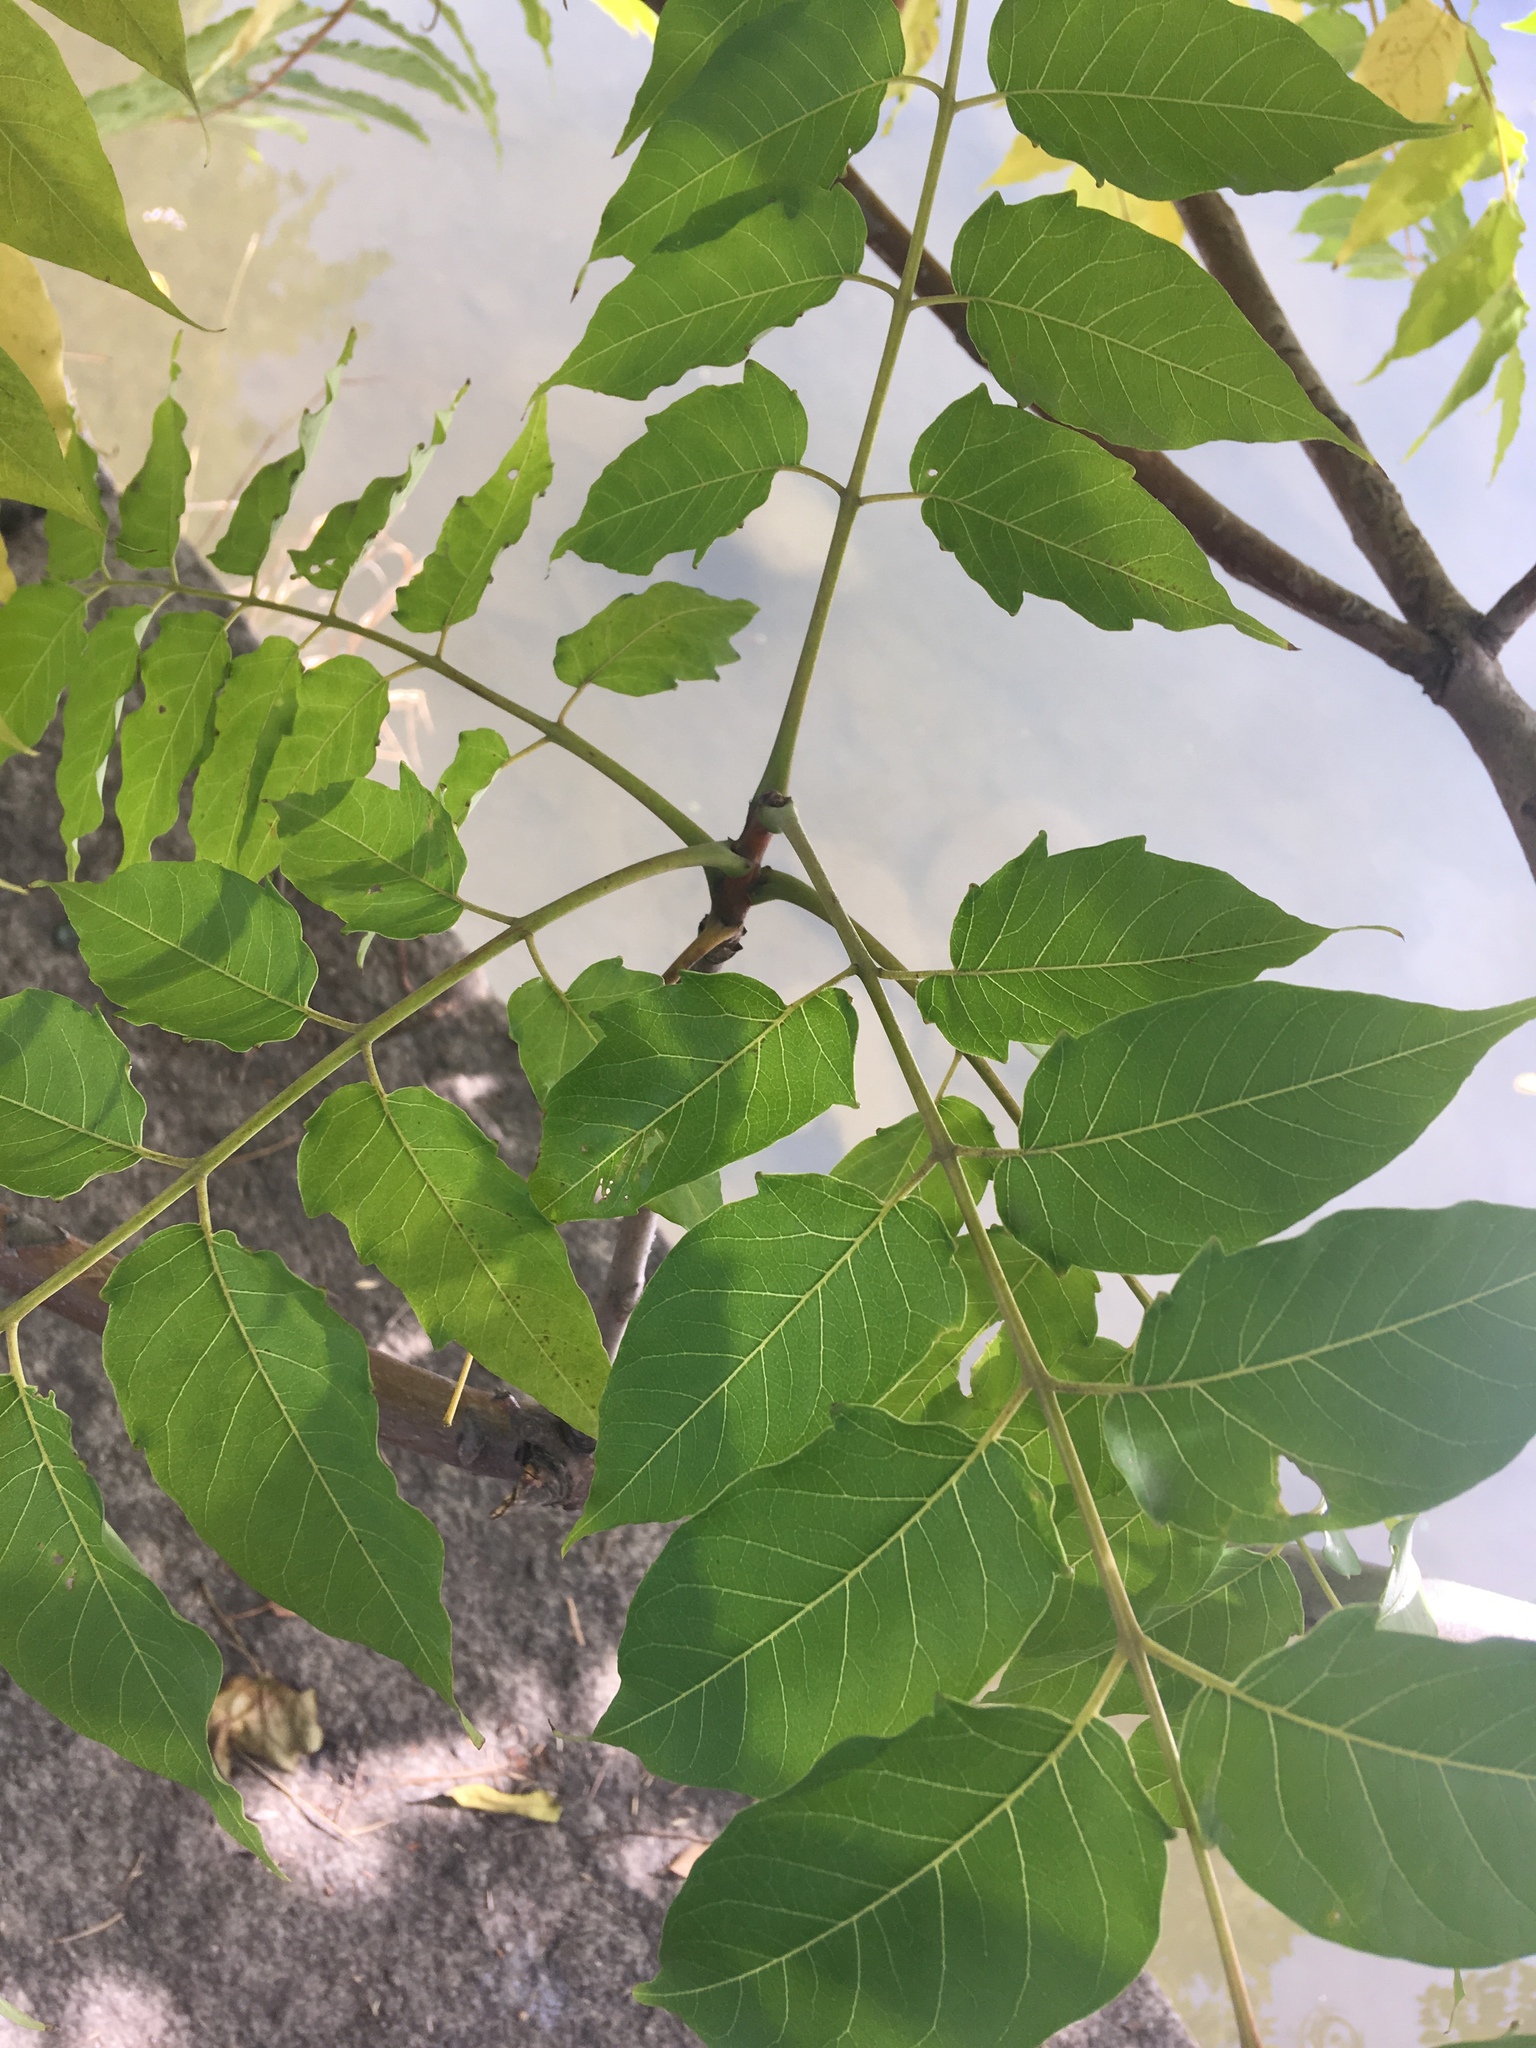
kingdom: Plantae
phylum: Tracheophyta
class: Magnoliopsida
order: Sapindales
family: Simaroubaceae
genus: Ailanthus
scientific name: Ailanthus altissima
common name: Tree-of-heaven
